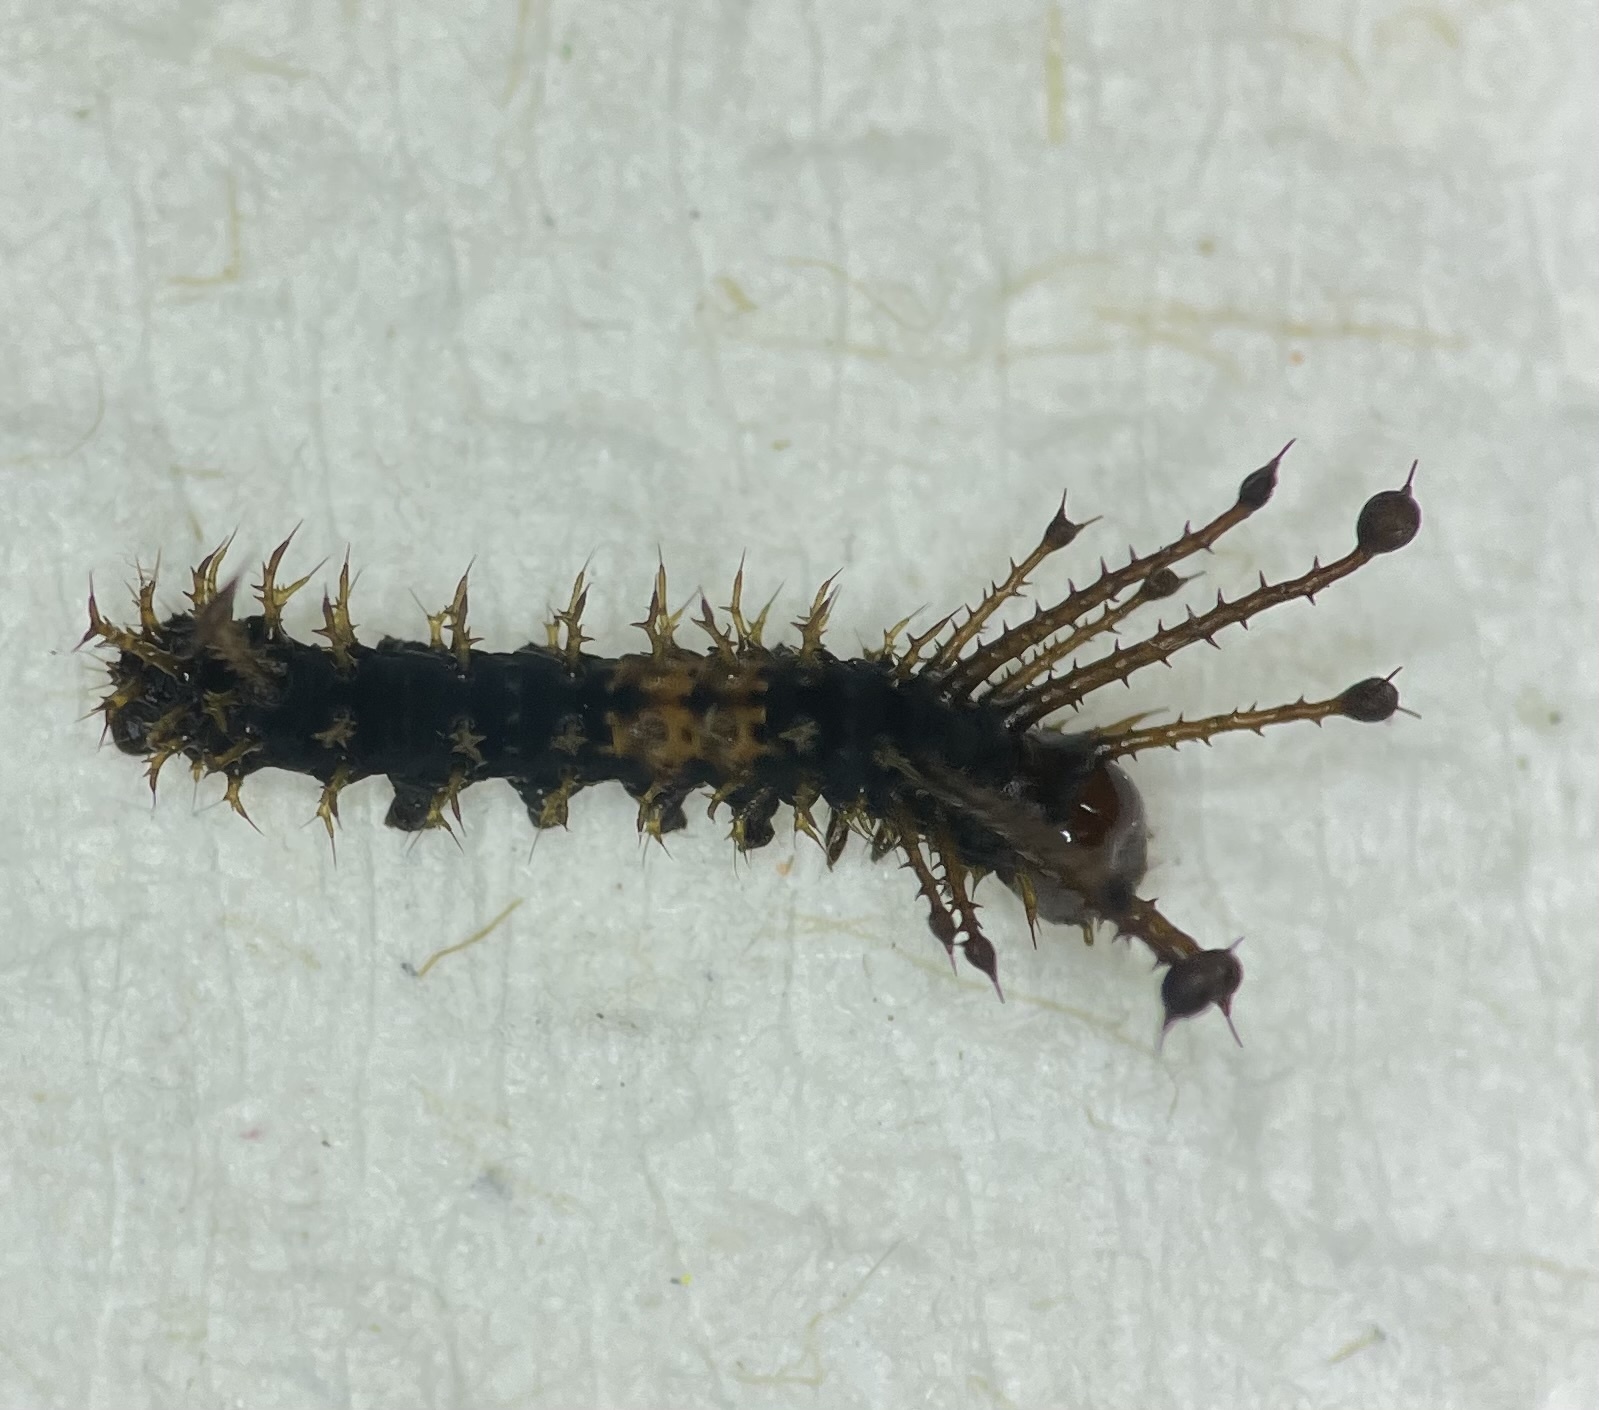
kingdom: Animalia
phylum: Arthropoda
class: Insecta
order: Lepidoptera
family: Saturniidae
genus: Citheronia
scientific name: Citheronia regalis
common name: Hickory horned devil
